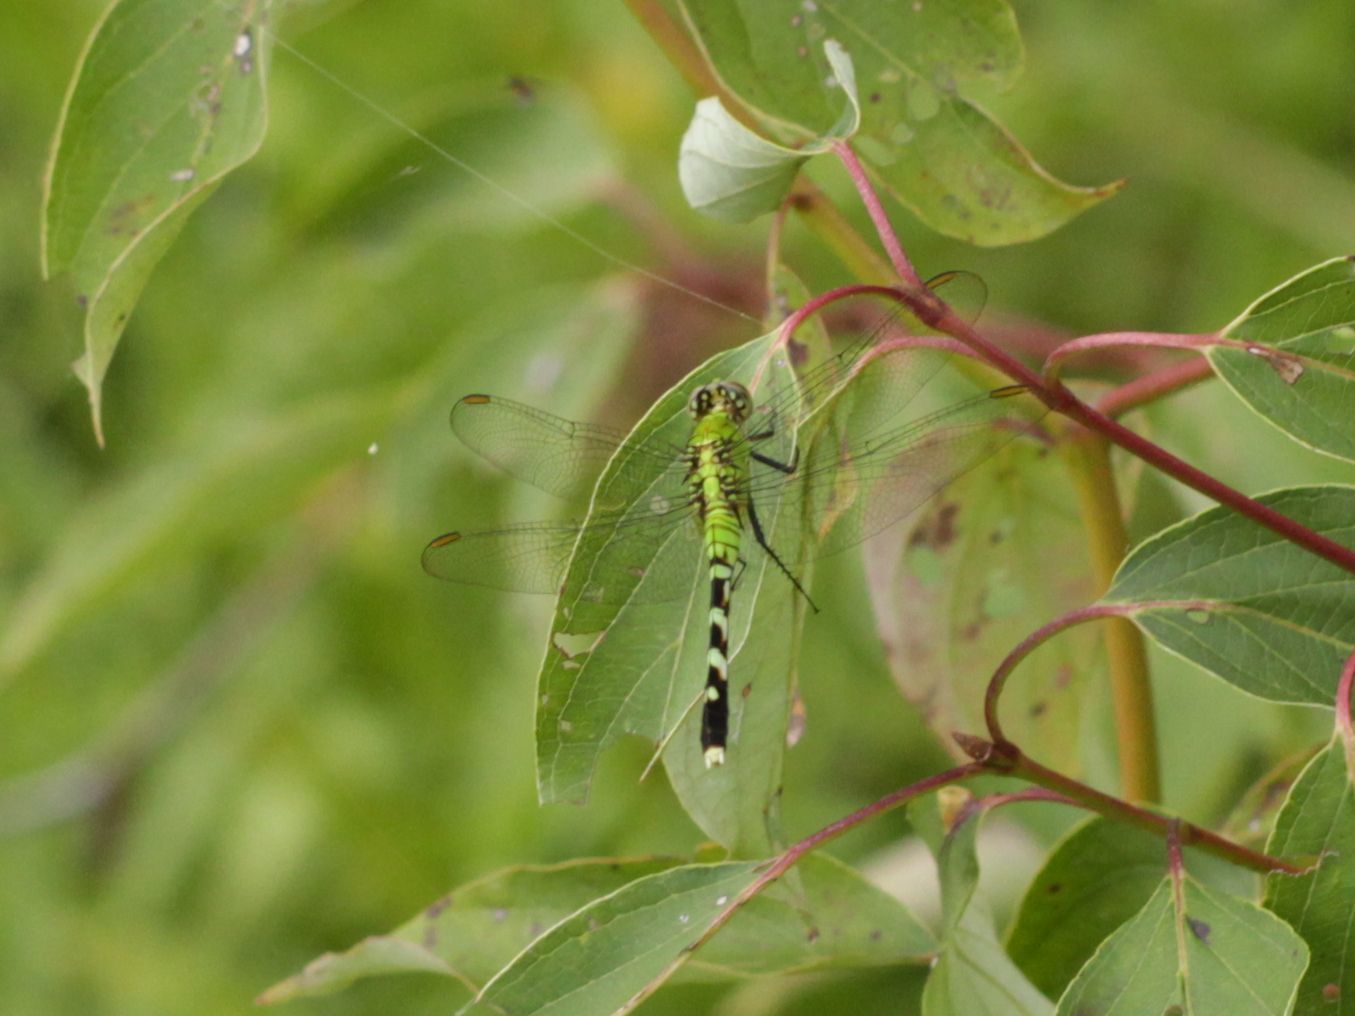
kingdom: Animalia
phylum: Arthropoda
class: Insecta
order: Odonata
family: Libellulidae
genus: Erythemis
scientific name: Erythemis simplicicollis
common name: Eastern pondhawk
